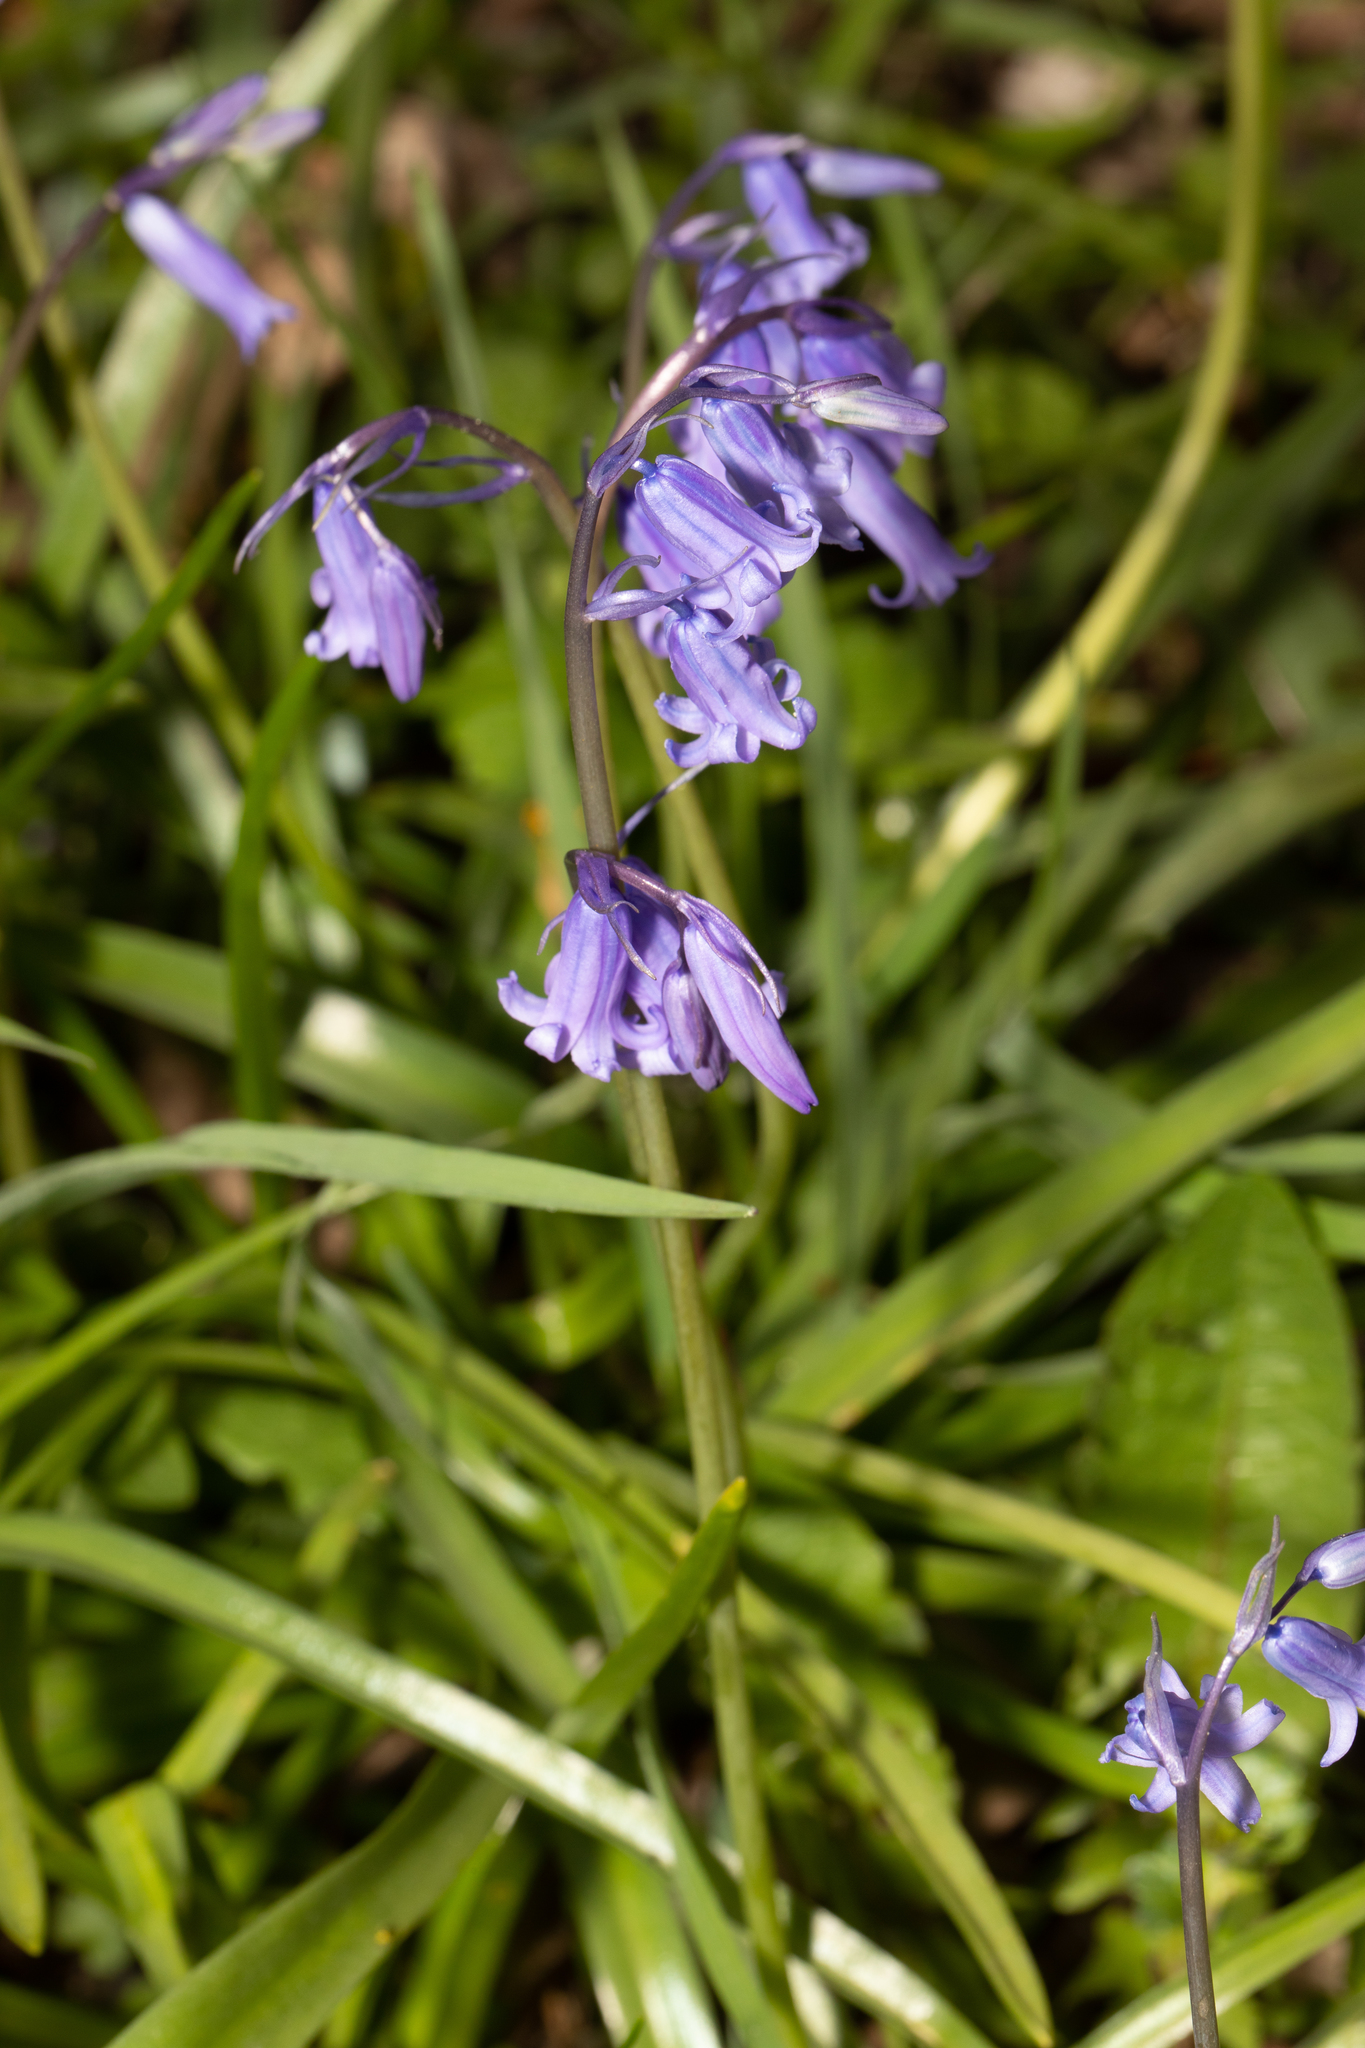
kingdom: Plantae
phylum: Tracheophyta
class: Liliopsida
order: Asparagales
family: Asparagaceae
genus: Hyacinthoides
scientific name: Hyacinthoides non-scripta
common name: Bluebell
